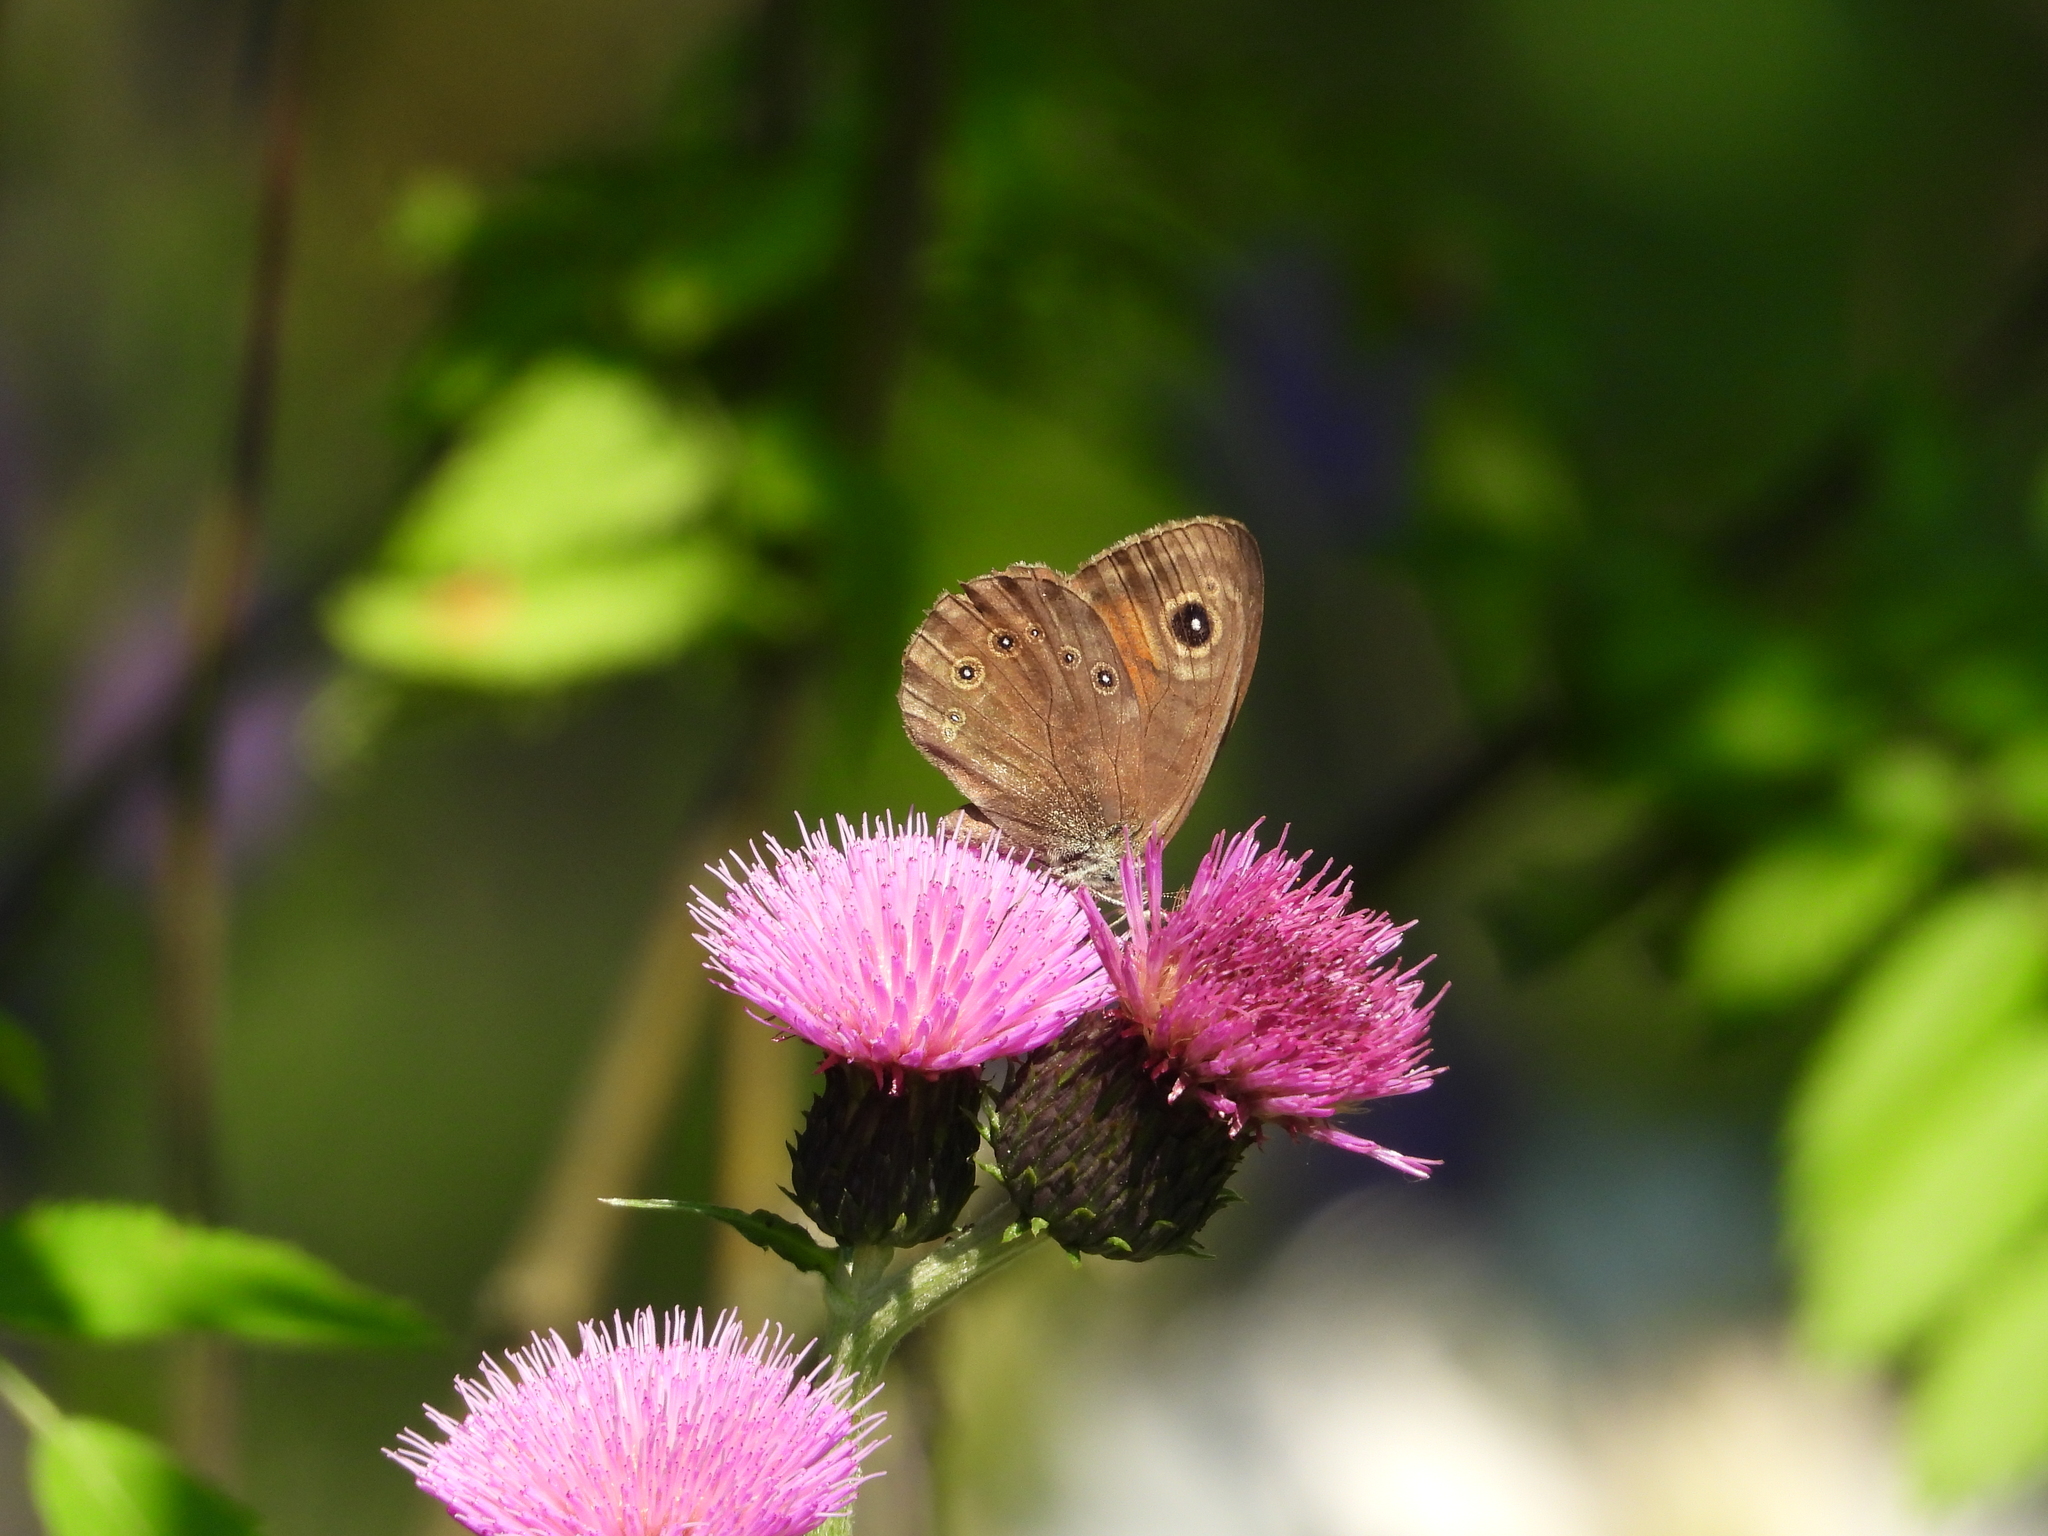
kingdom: Animalia
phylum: Arthropoda
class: Insecta
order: Lepidoptera
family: Nymphalidae
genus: Pararge
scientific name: Pararge Lasiommata maera
